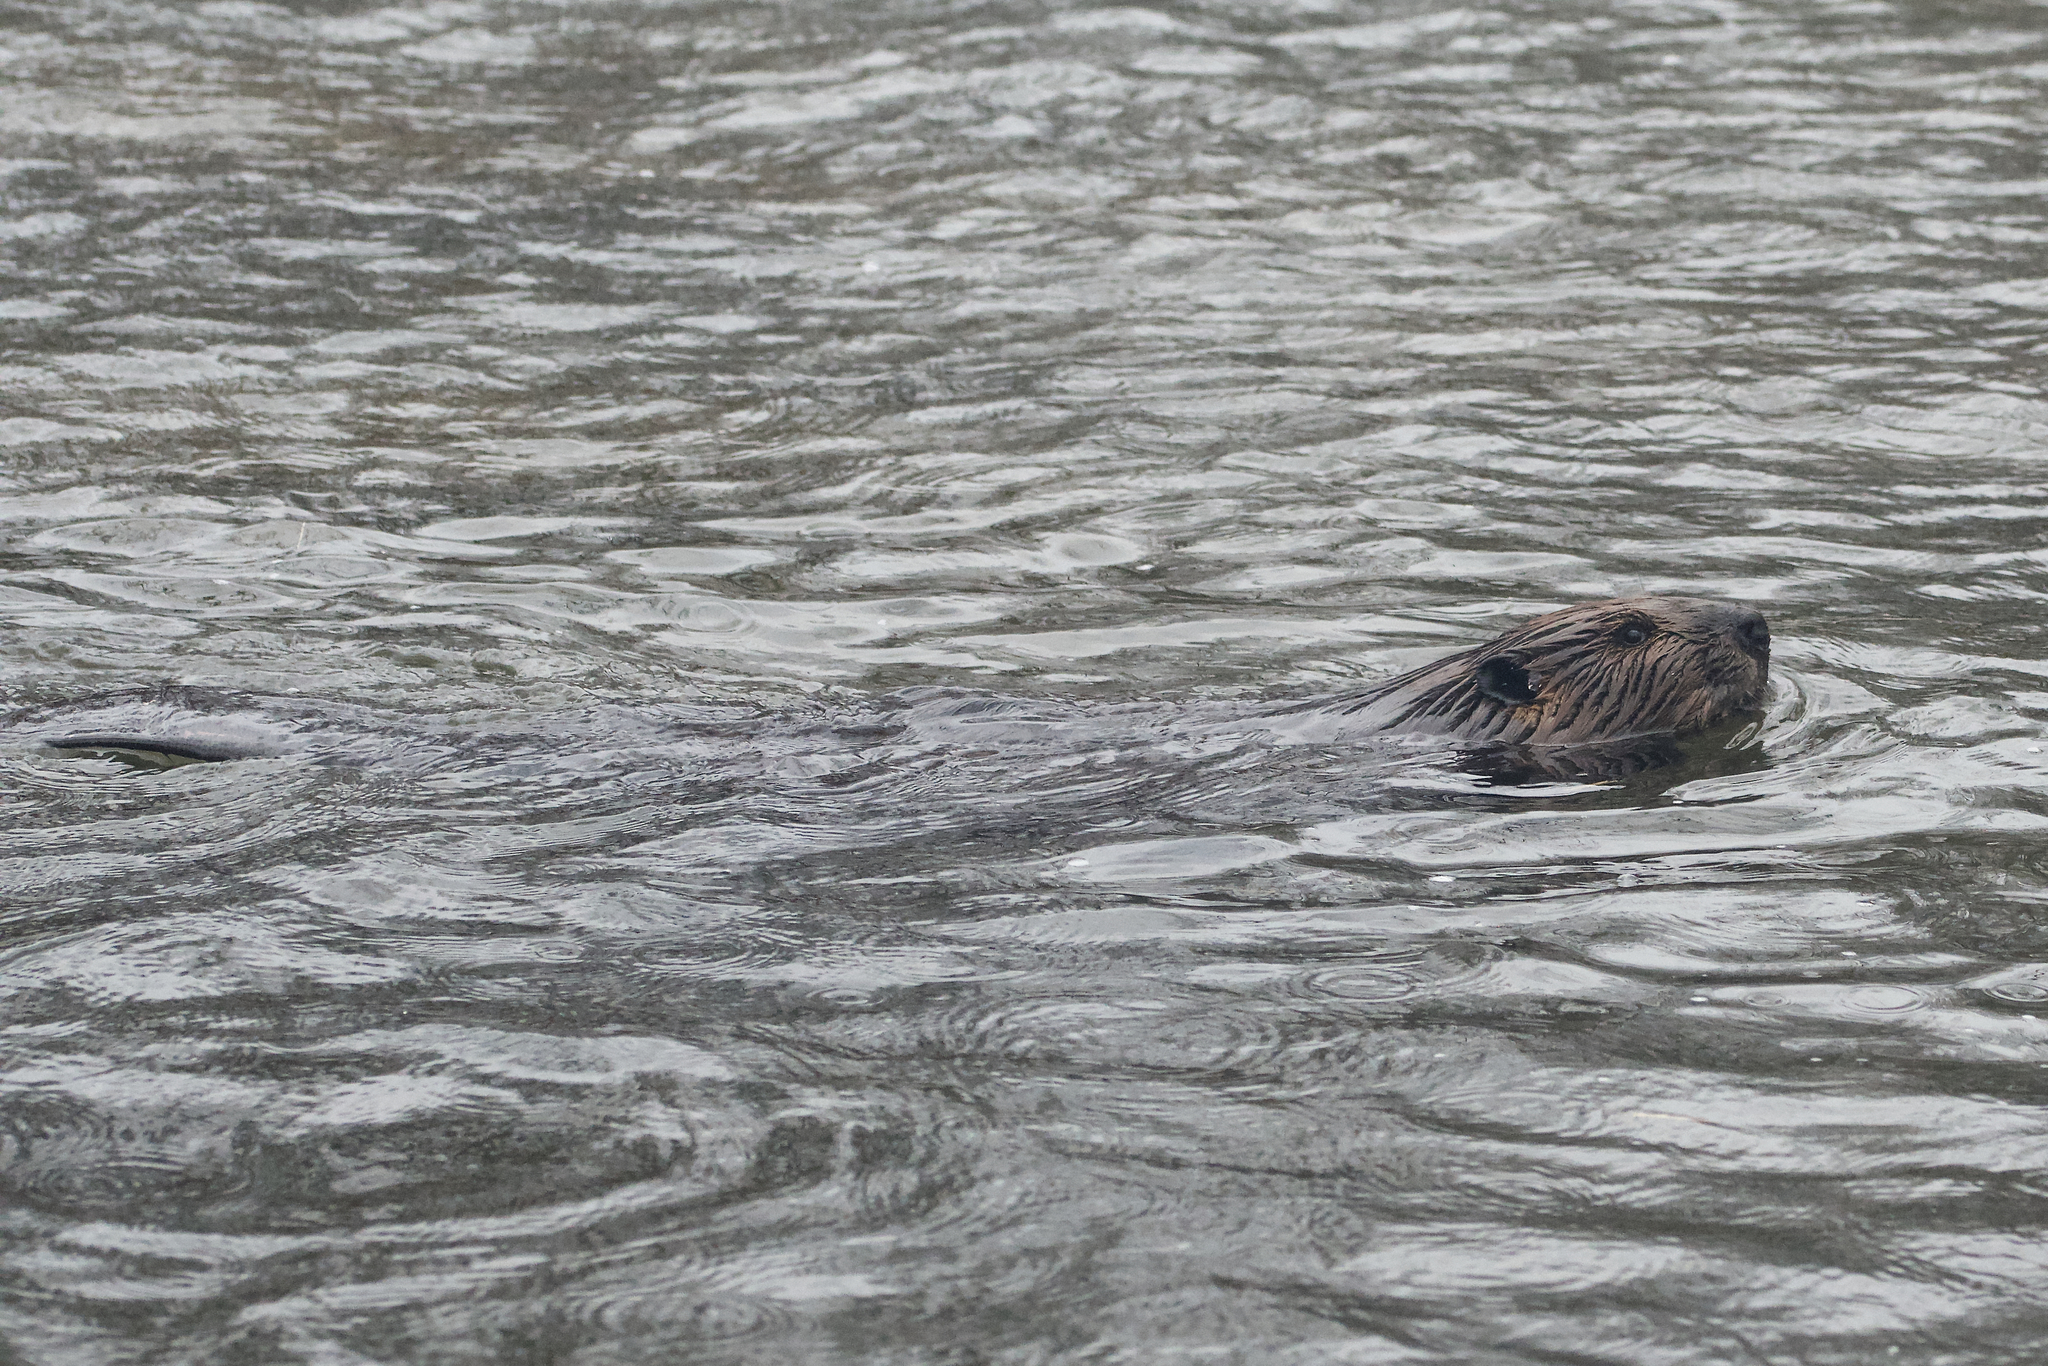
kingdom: Animalia
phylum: Chordata
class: Mammalia
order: Rodentia
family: Castoridae
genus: Castor
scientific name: Castor canadensis
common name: American beaver
